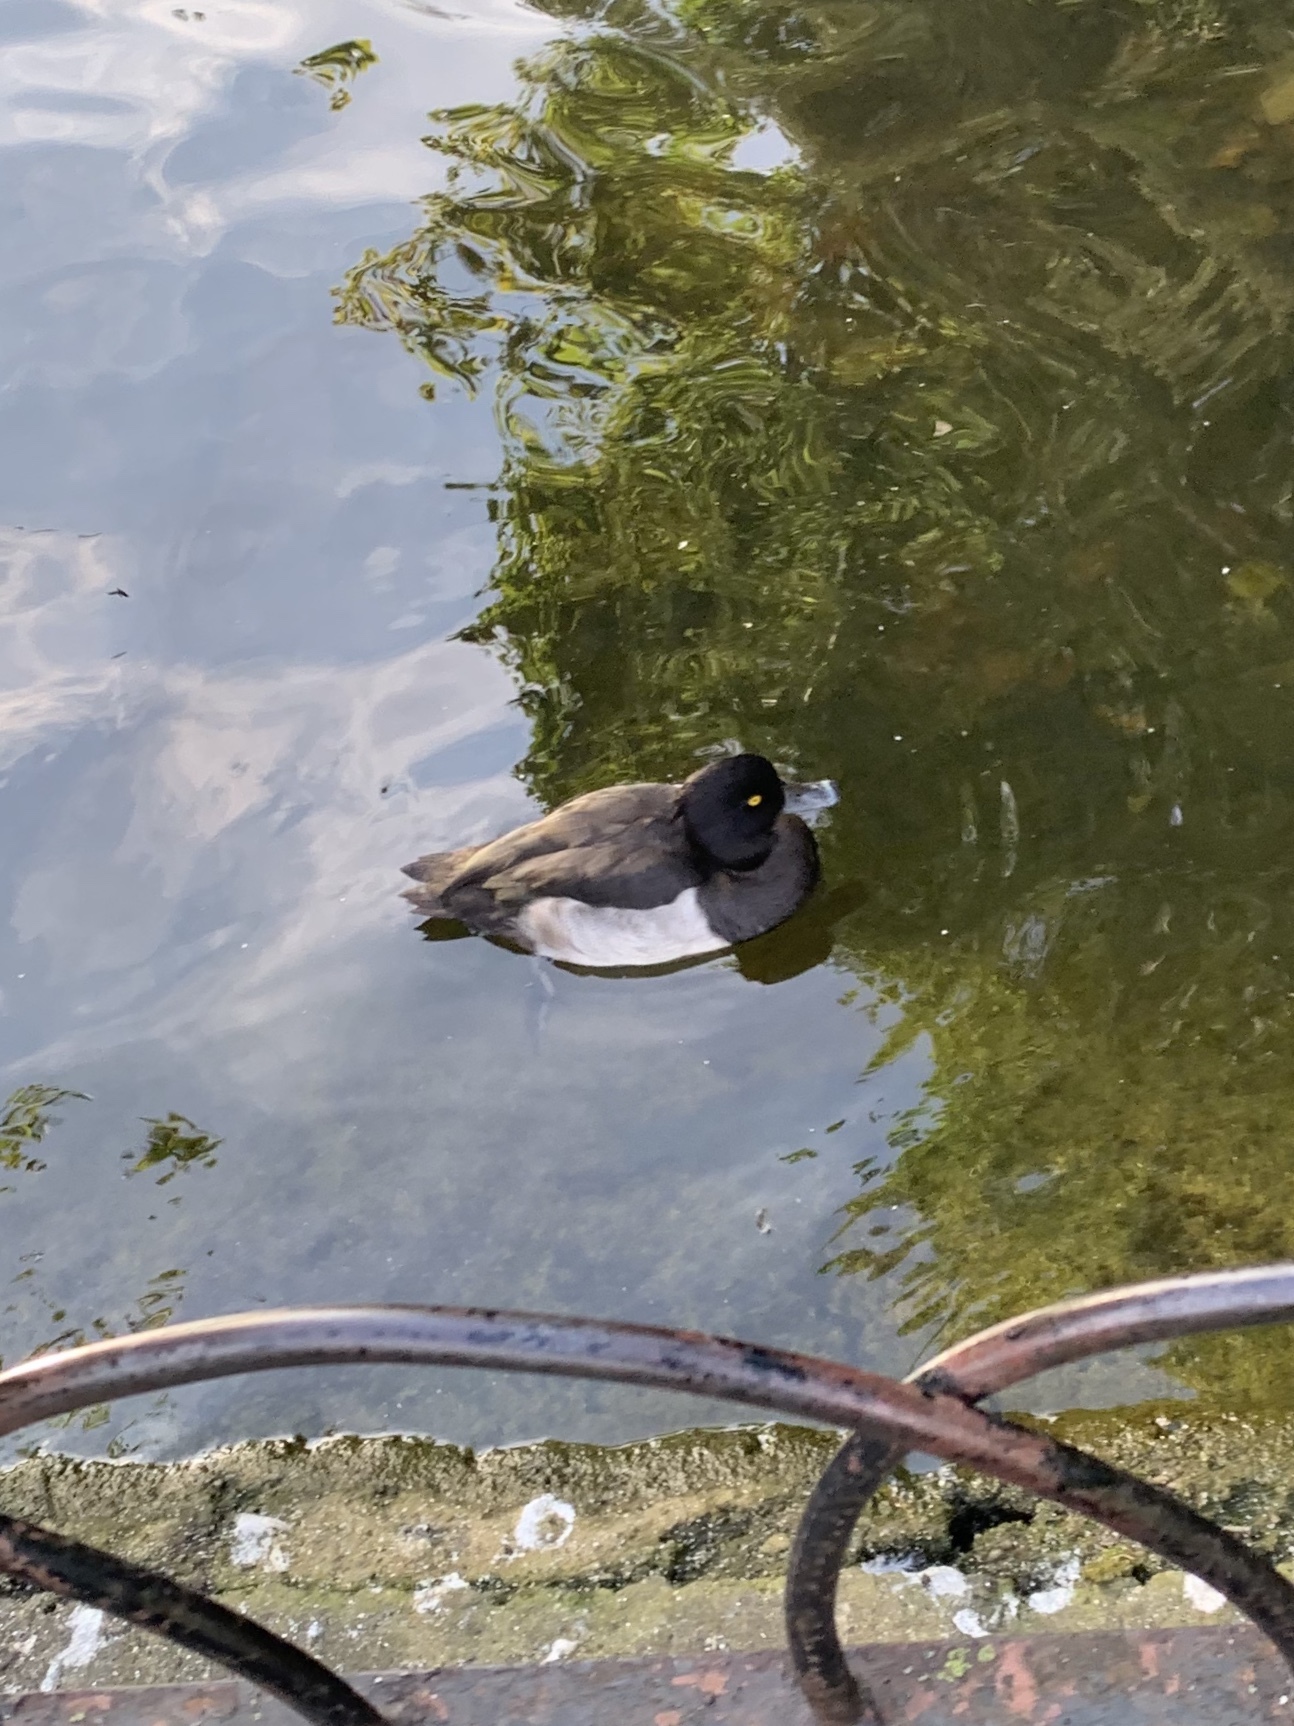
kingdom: Animalia
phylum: Chordata
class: Aves
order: Anseriformes
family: Anatidae
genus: Aythya
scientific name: Aythya fuligula
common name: Tufted duck
